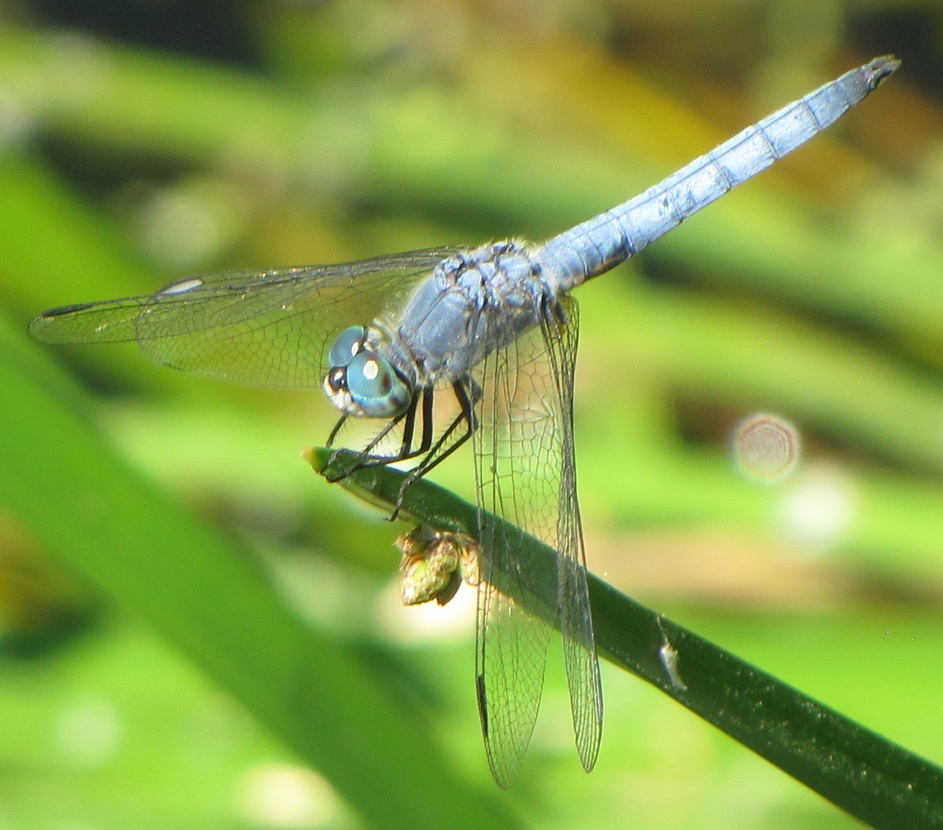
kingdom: Animalia
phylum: Arthropoda
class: Insecta
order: Odonata
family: Libellulidae
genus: Pachydiplax
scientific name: Pachydiplax longipennis
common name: Blue dasher
